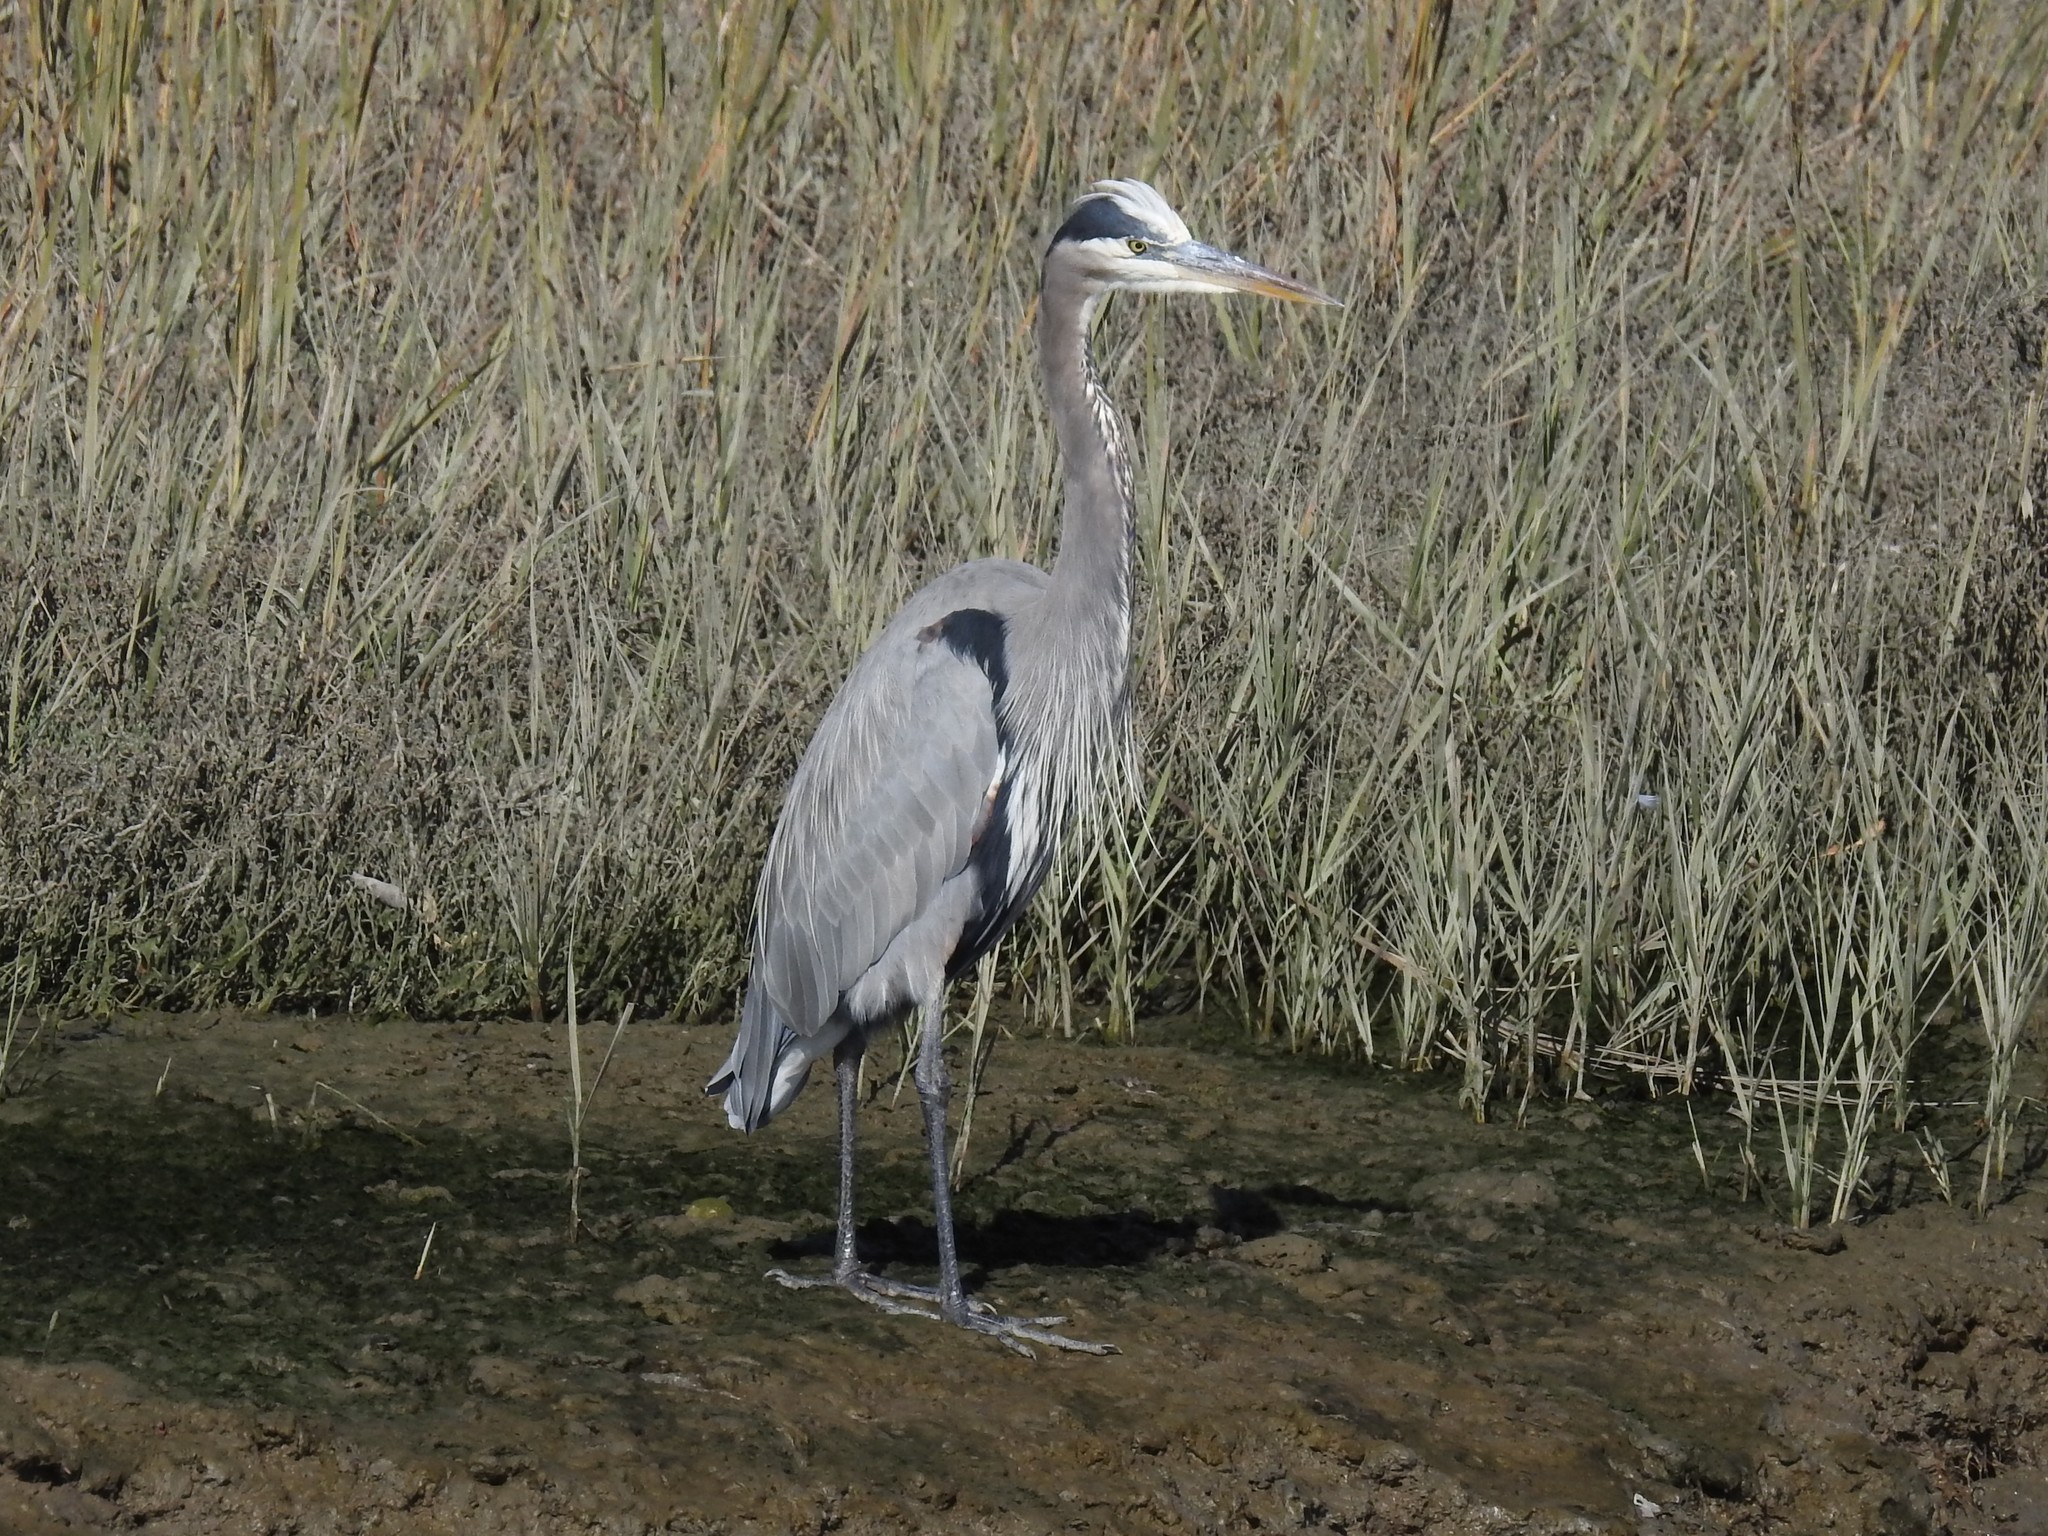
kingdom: Animalia
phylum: Chordata
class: Aves
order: Pelecaniformes
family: Ardeidae
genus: Ardea
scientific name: Ardea herodias
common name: Great blue heron
